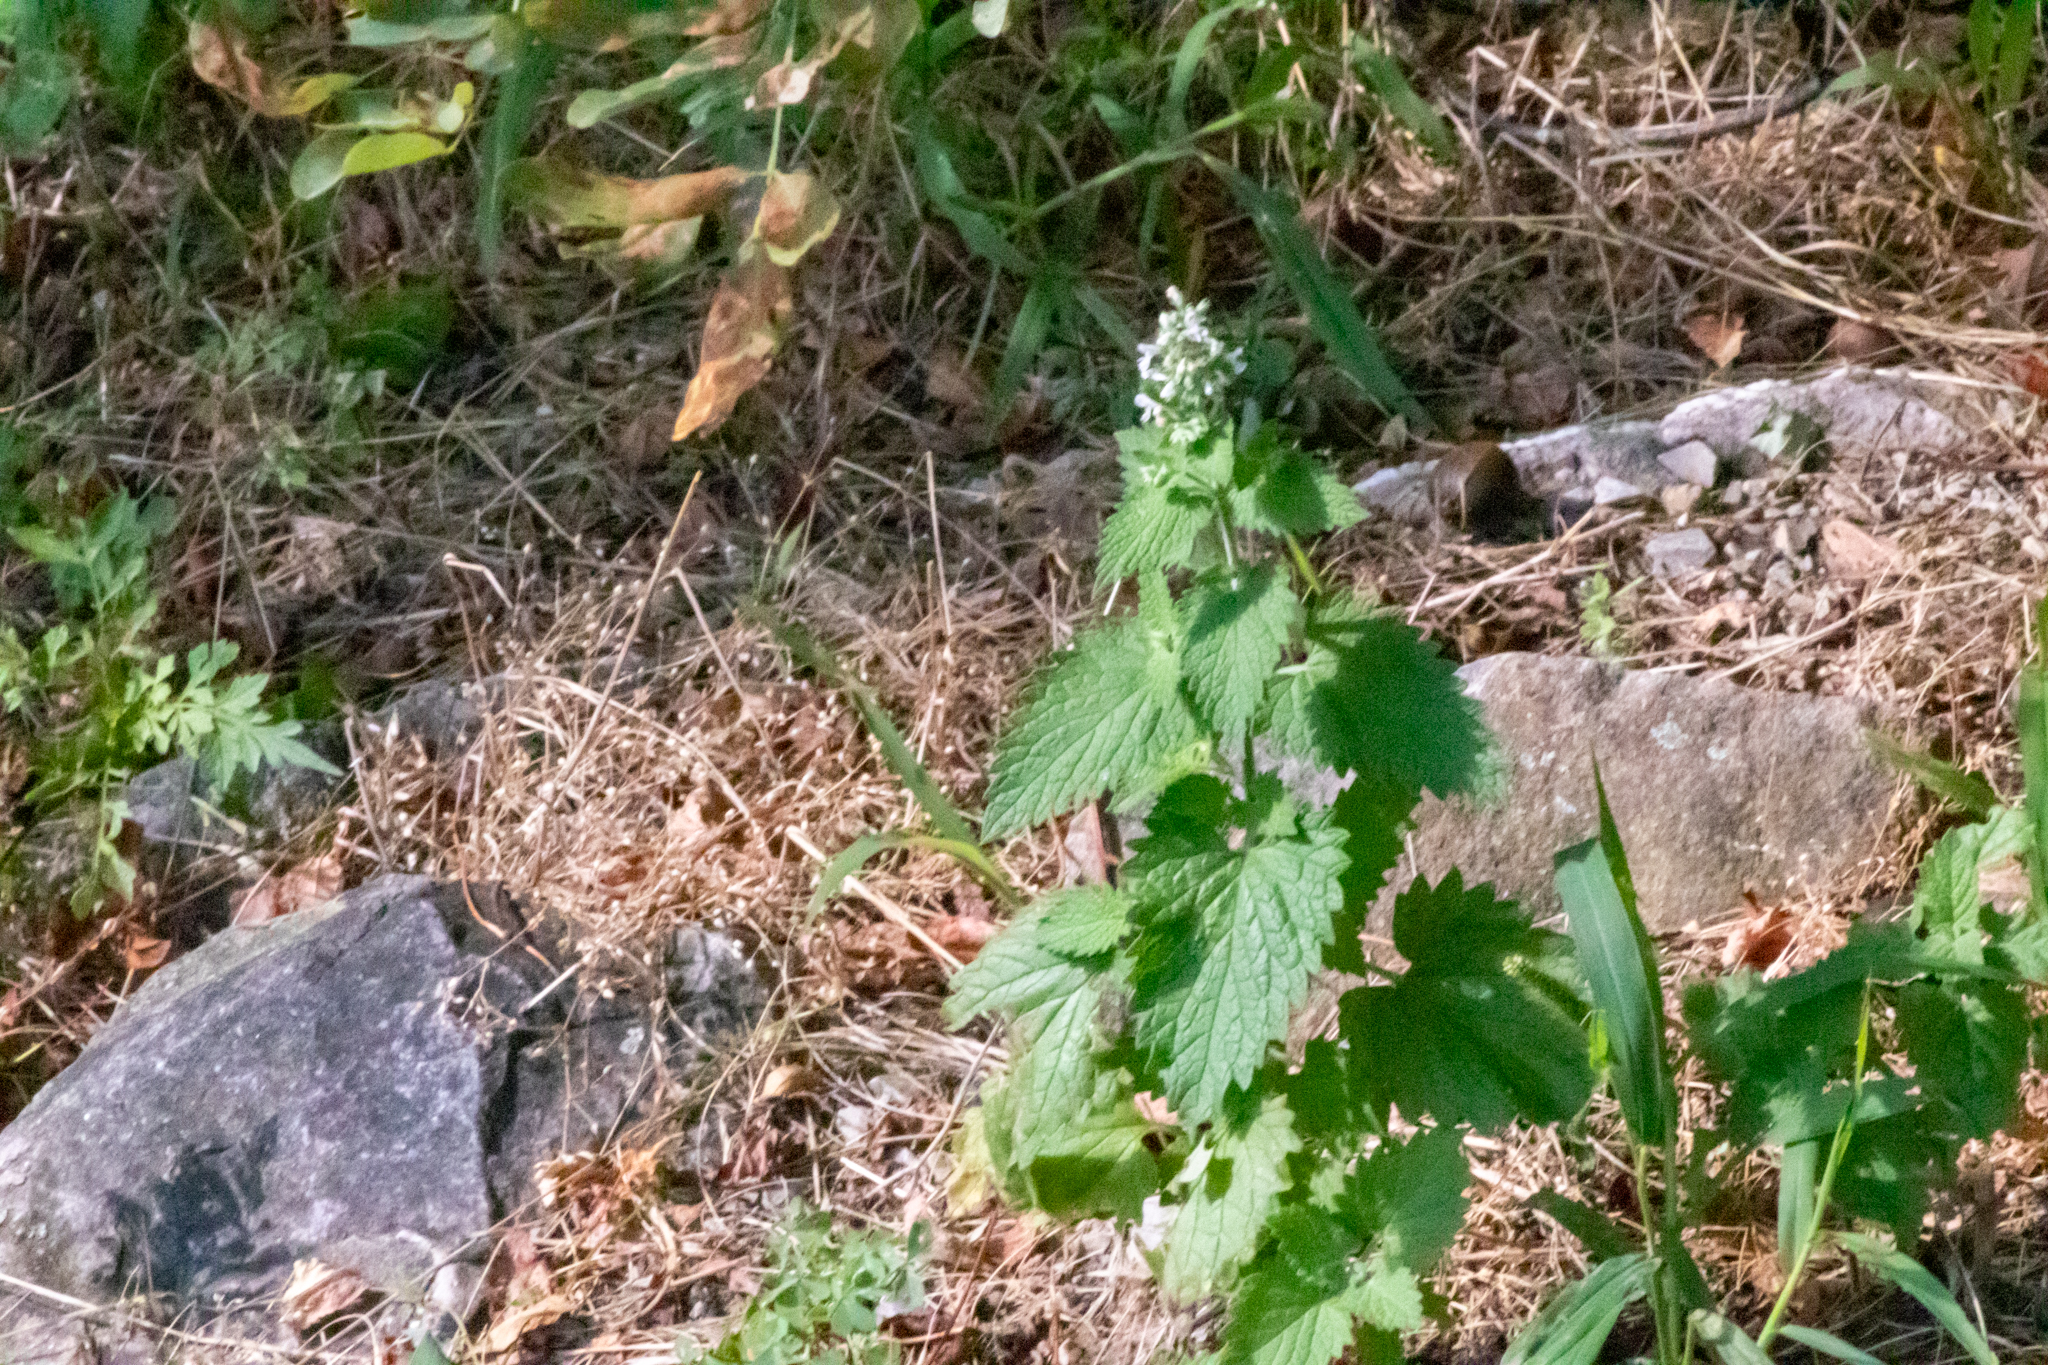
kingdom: Plantae
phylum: Tracheophyta
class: Magnoliopsida
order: Lamiales
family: Lamiaceae
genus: Nepeta
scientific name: Nepeta cataria
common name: Catnip
